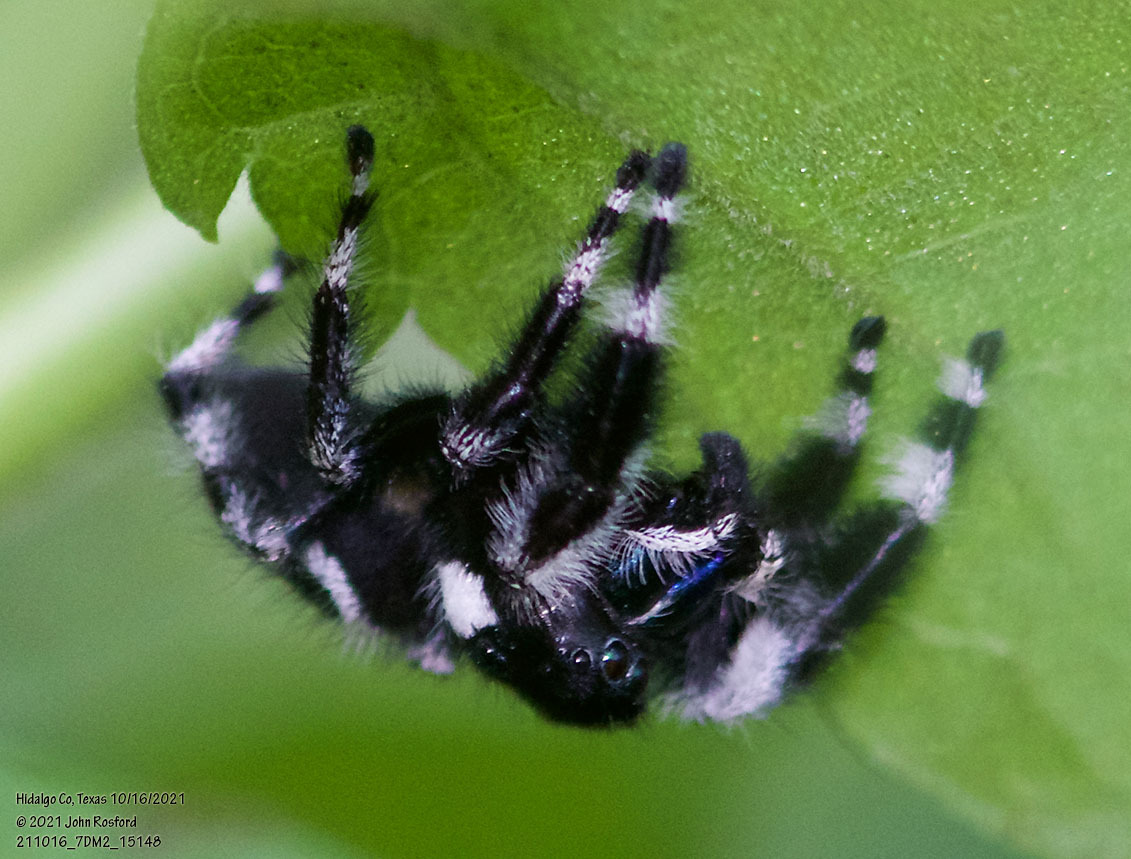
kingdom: Animalia
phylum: Arthropoda
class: Arachnida
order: Araneae
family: Salticidae
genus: Phidippus
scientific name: Phidippus audax
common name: Bold jumper
